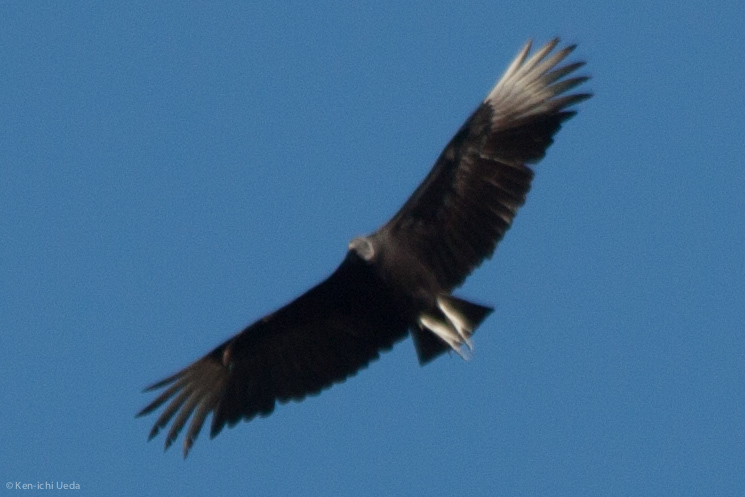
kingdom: Animalia
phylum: Chordata
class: Aves
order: Accipitriformes
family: Cathartidae
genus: Coragyps
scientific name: Coragyps atratus
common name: Black vulture
